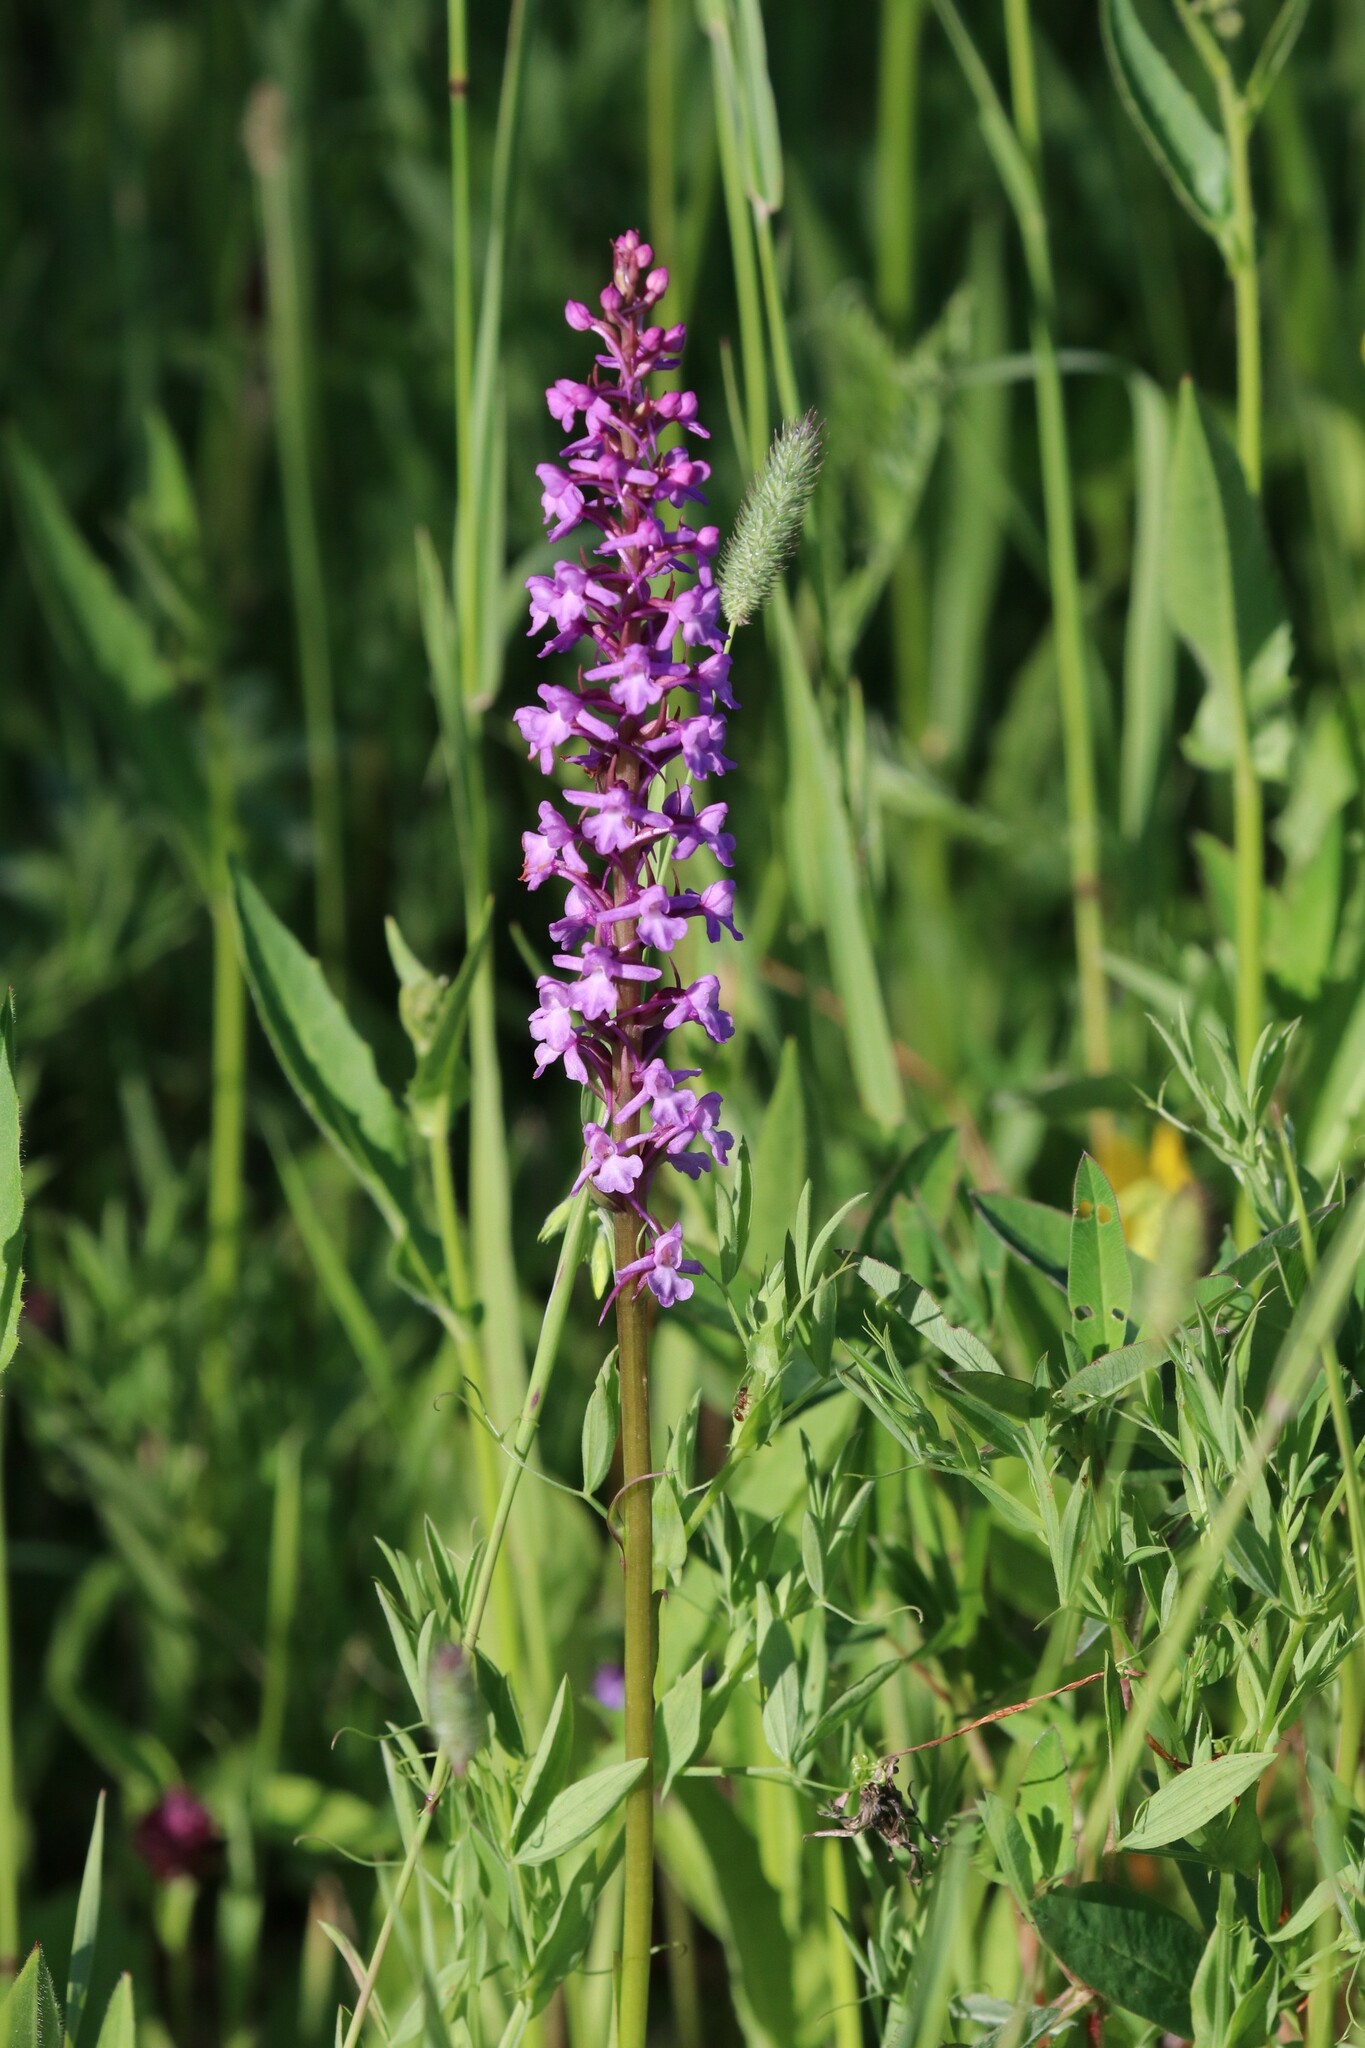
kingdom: Plantae
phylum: Tracheophyta
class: Liliopsida
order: Asparagales
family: Orchidaceae
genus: Gymnadenia
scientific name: Gymnadenia conopsea
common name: Fragrant orchid
